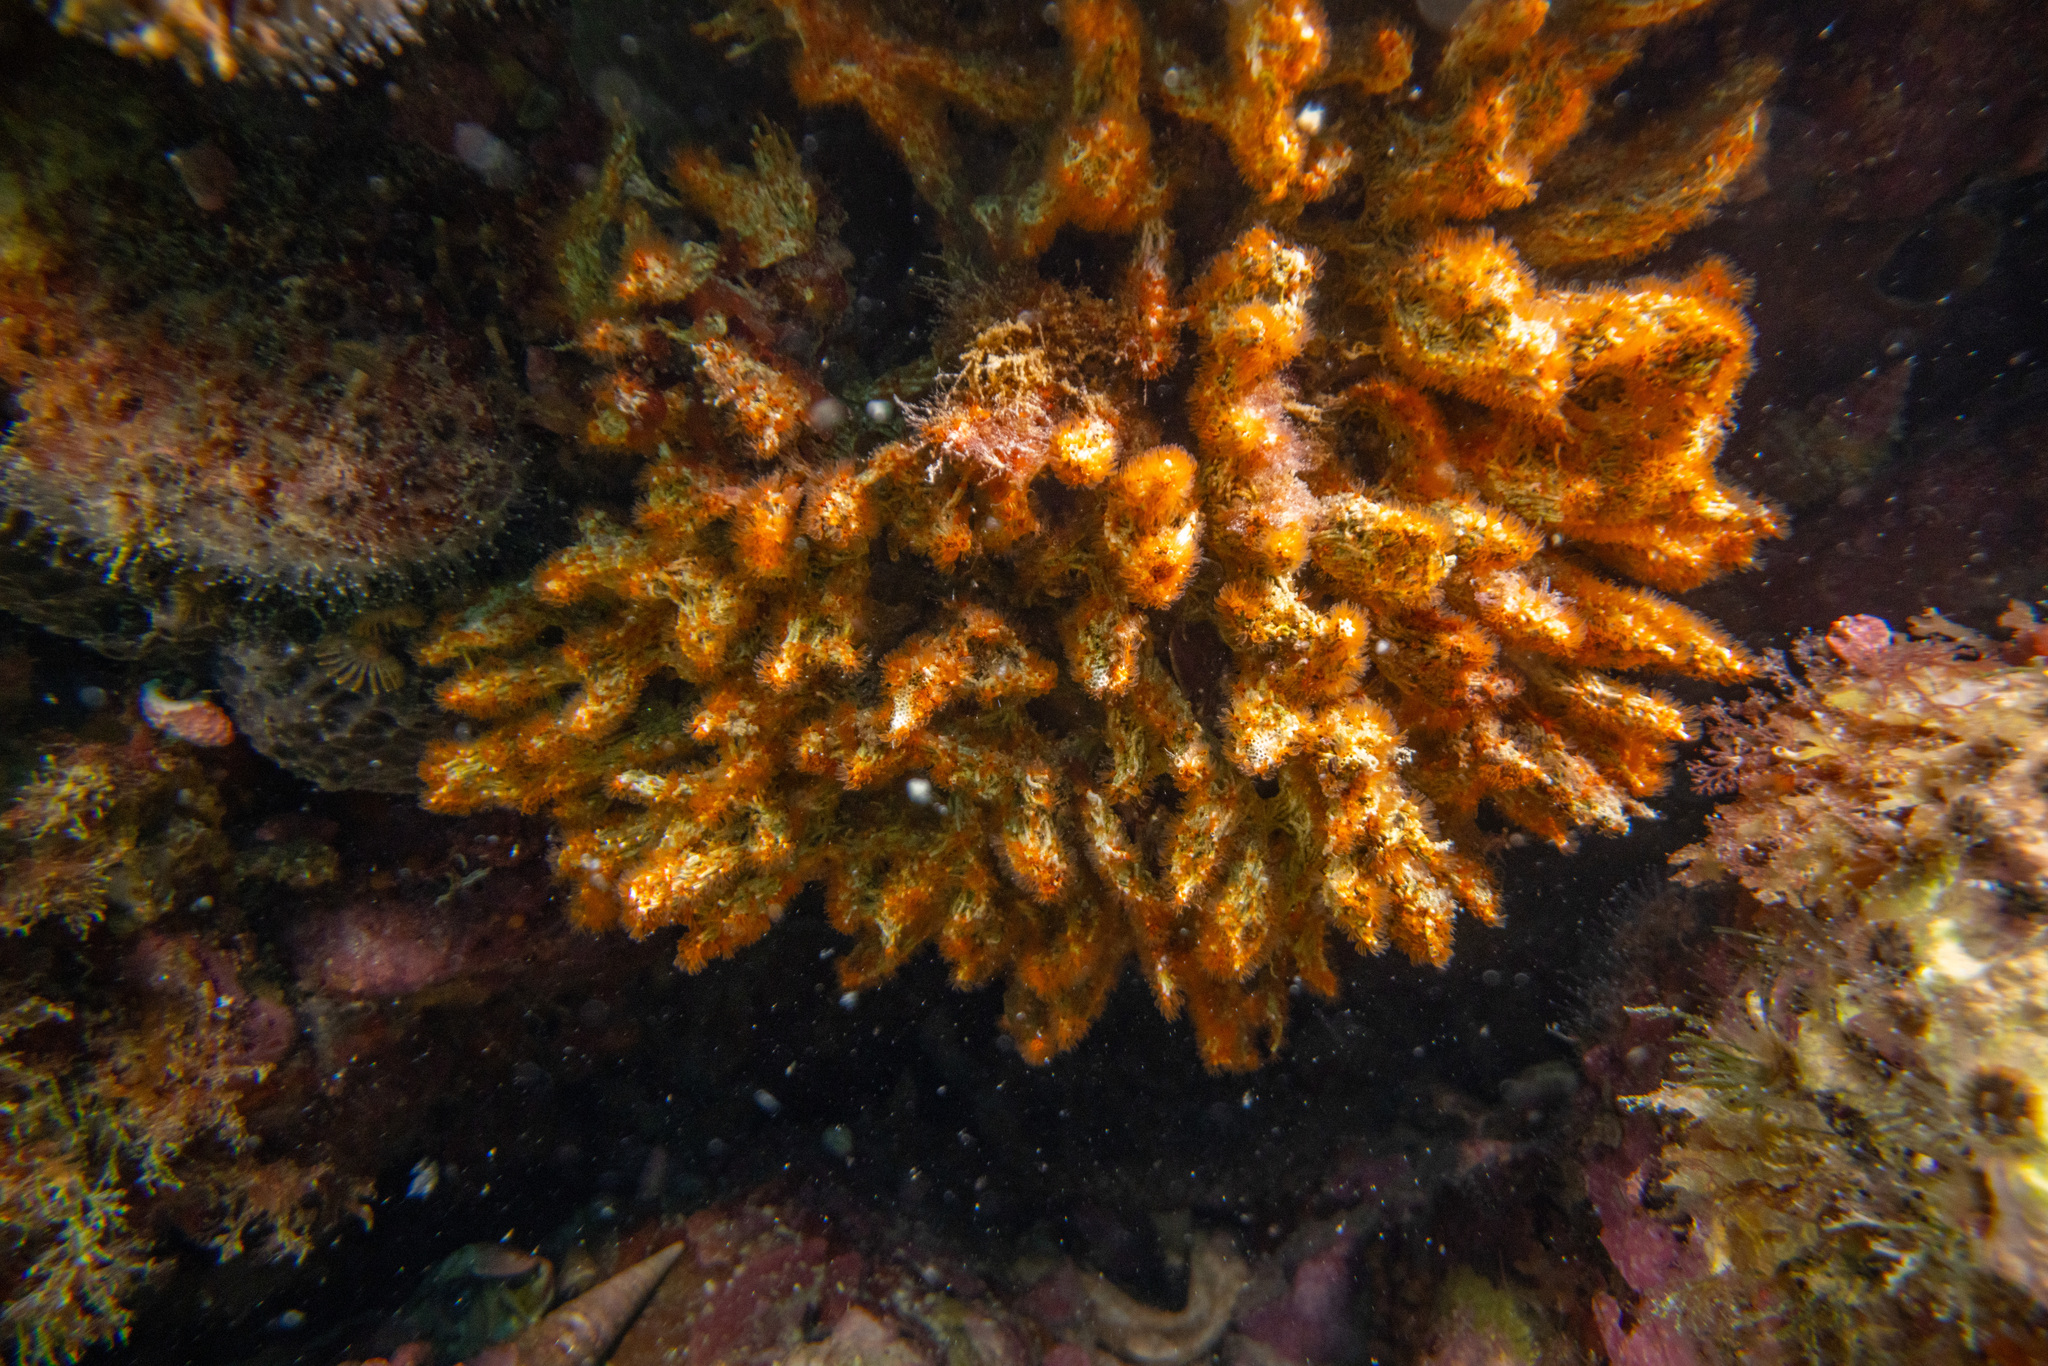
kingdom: Animalia
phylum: Annelida
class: Polychaeta
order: Sabellida
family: Serpulidae
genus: Salmacina
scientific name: Salmacina australis
